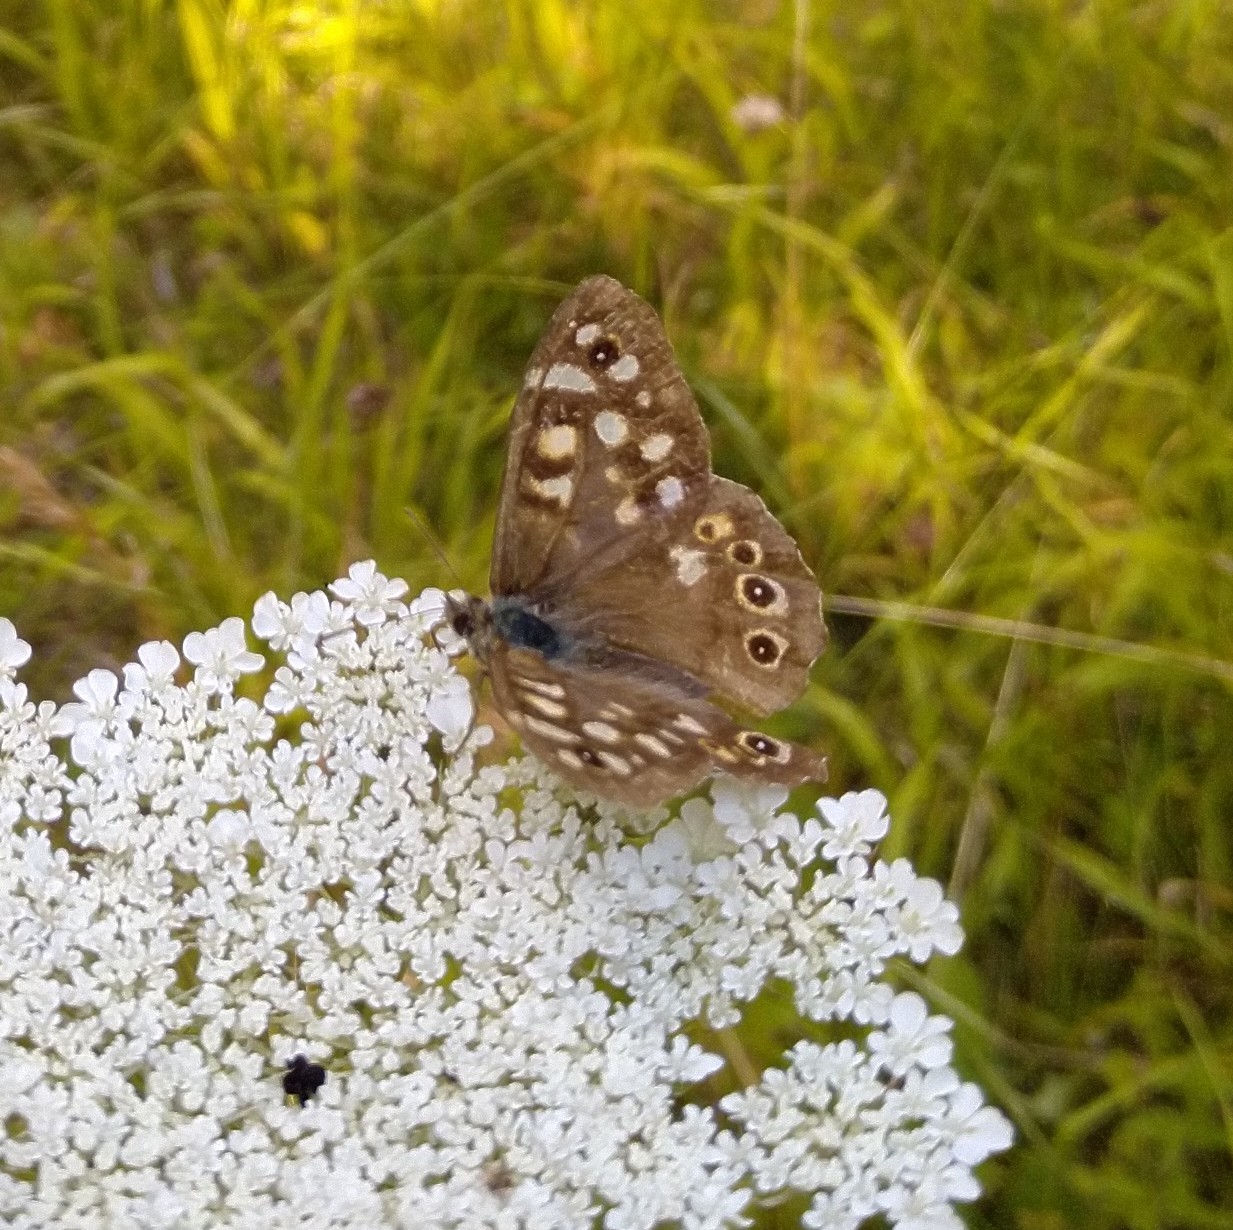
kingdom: Animalia
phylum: Arthropoda
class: Insecta
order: Lepidoptera
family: Nymphalidae
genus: Pararge
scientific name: Pararge aegeria
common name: Speckled wood
